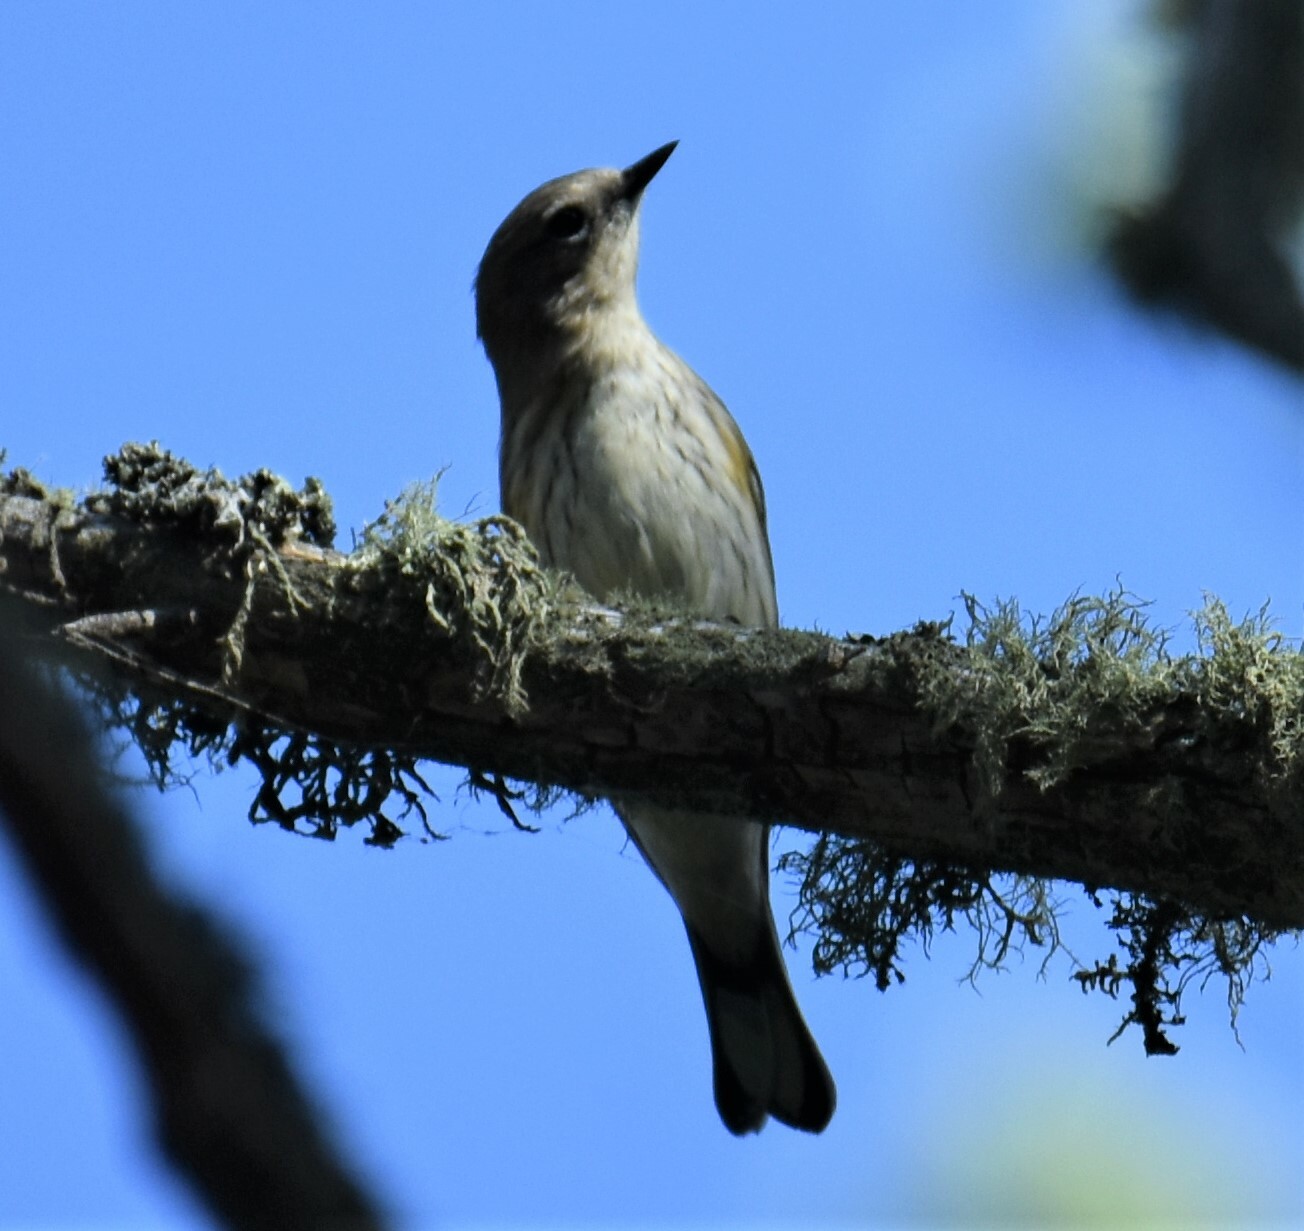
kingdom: Animalia
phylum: Chordata
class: Aves
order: Passeriformes
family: Parulidae
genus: Setophaga
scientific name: Setophaga coronata
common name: Myrtle warbler
